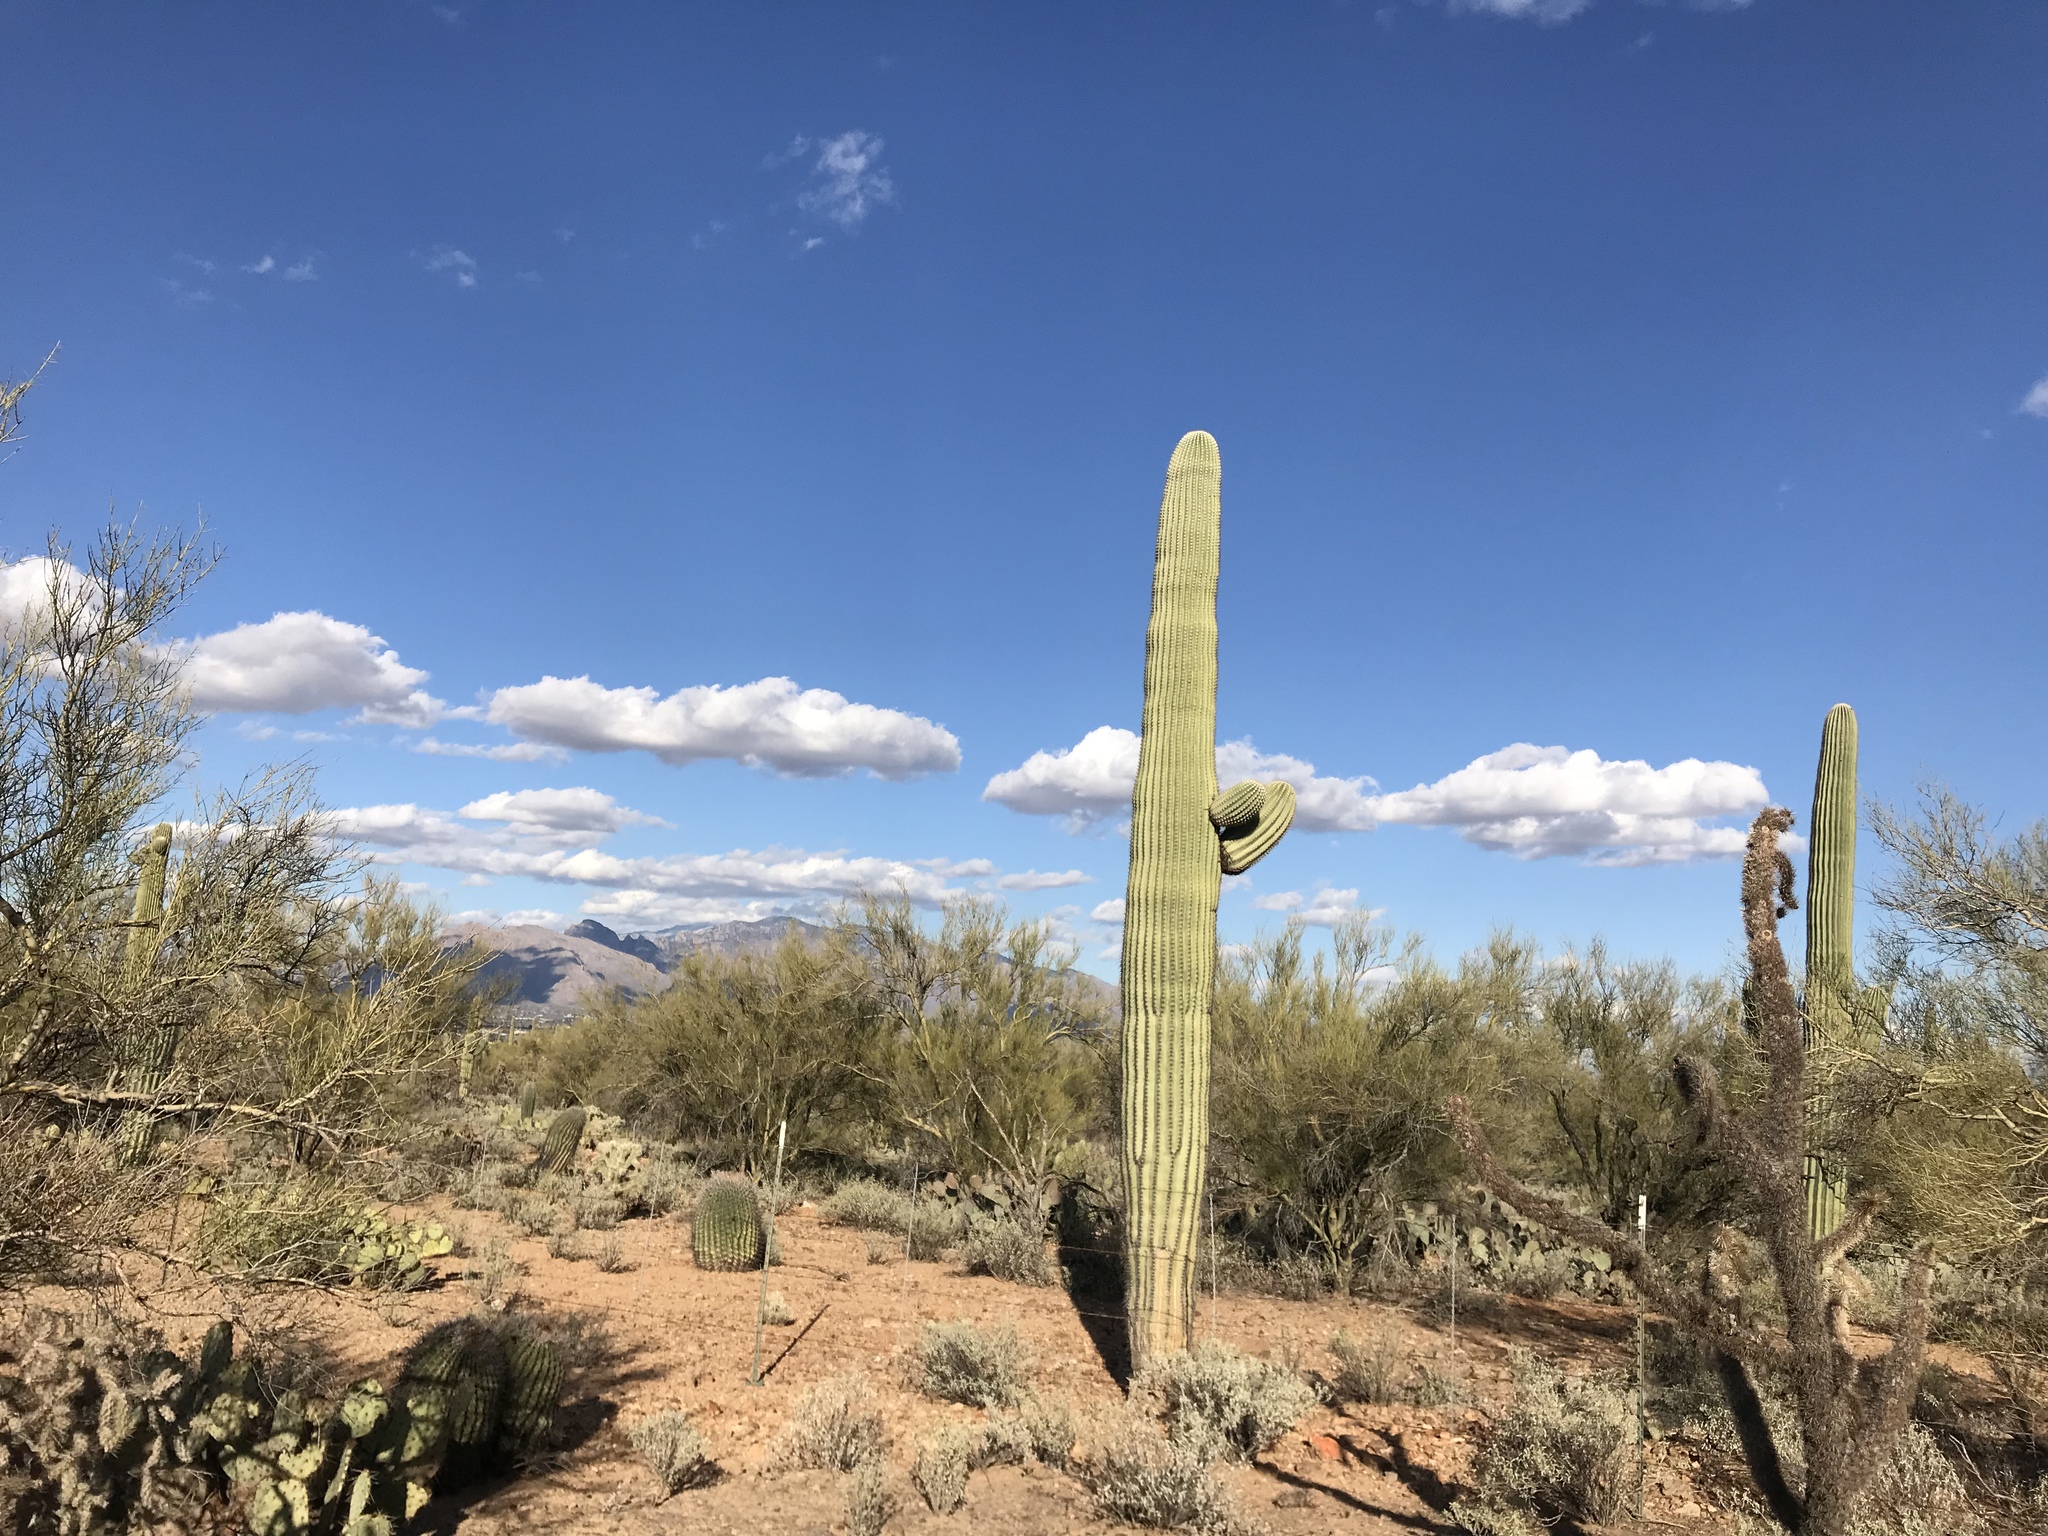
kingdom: Plantae
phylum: Tracheophyta
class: Magnoliopsida
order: Caryophyllales
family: Cactaceae
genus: Carnegiea
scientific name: Carnegiea gigantea
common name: Saguaro
